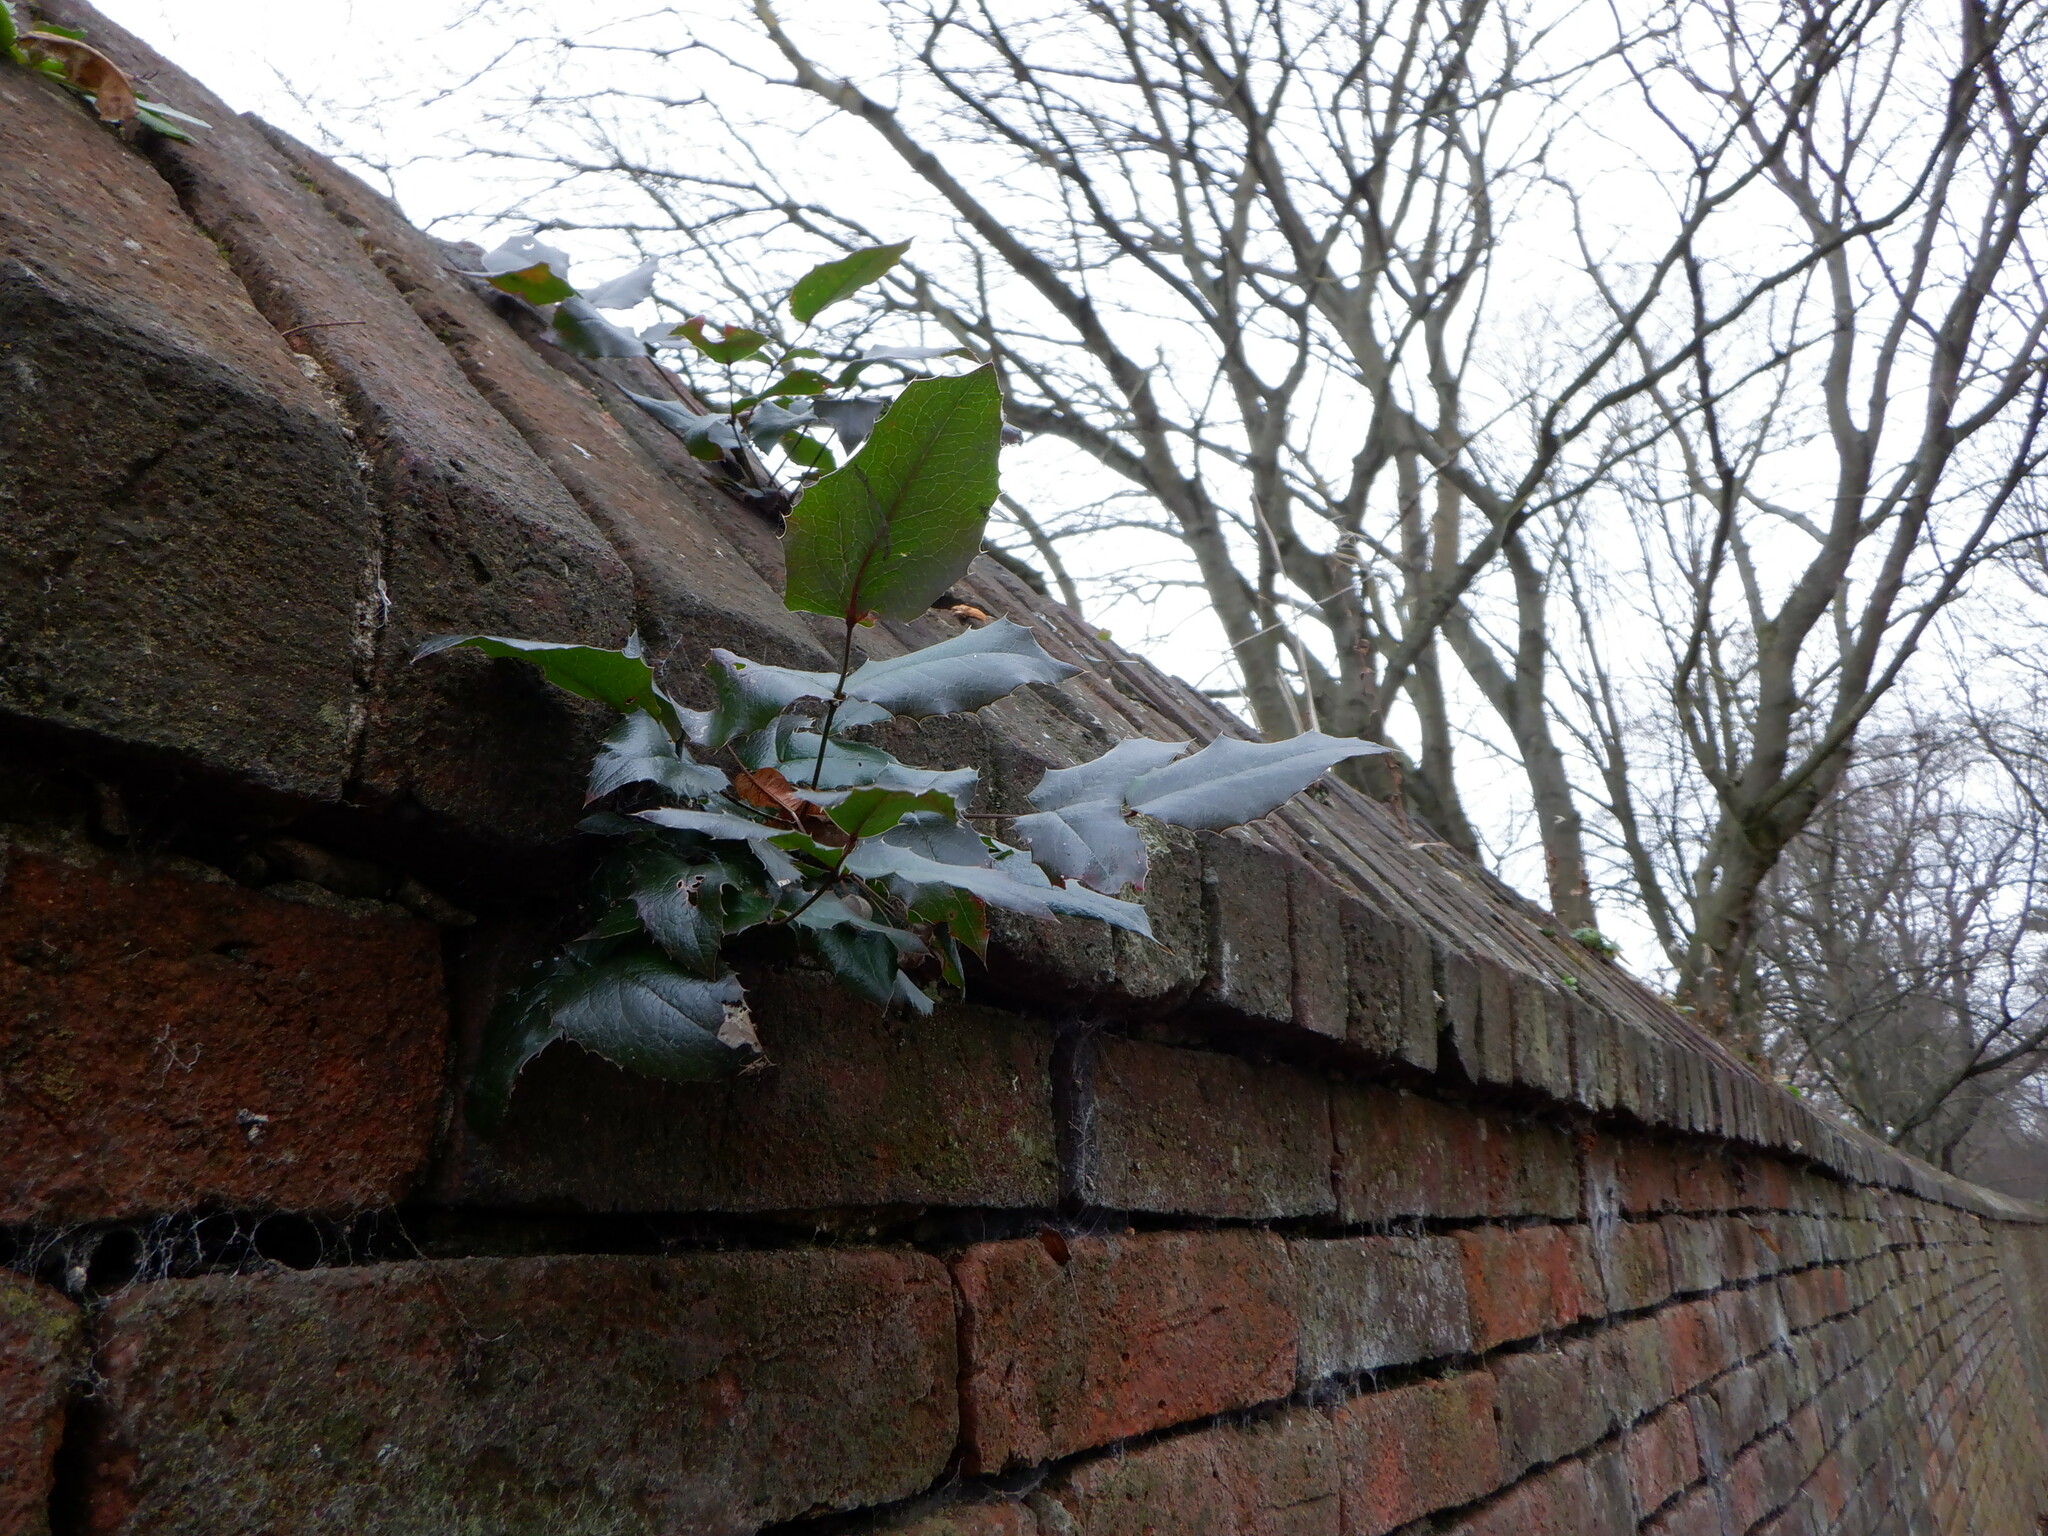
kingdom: Plantae
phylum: Tracheophyta
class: Magnoliopsida
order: Ranunculales
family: Berberidaceae
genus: Mahonia
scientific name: Mahonia aquifolium
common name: Oregon-grape
